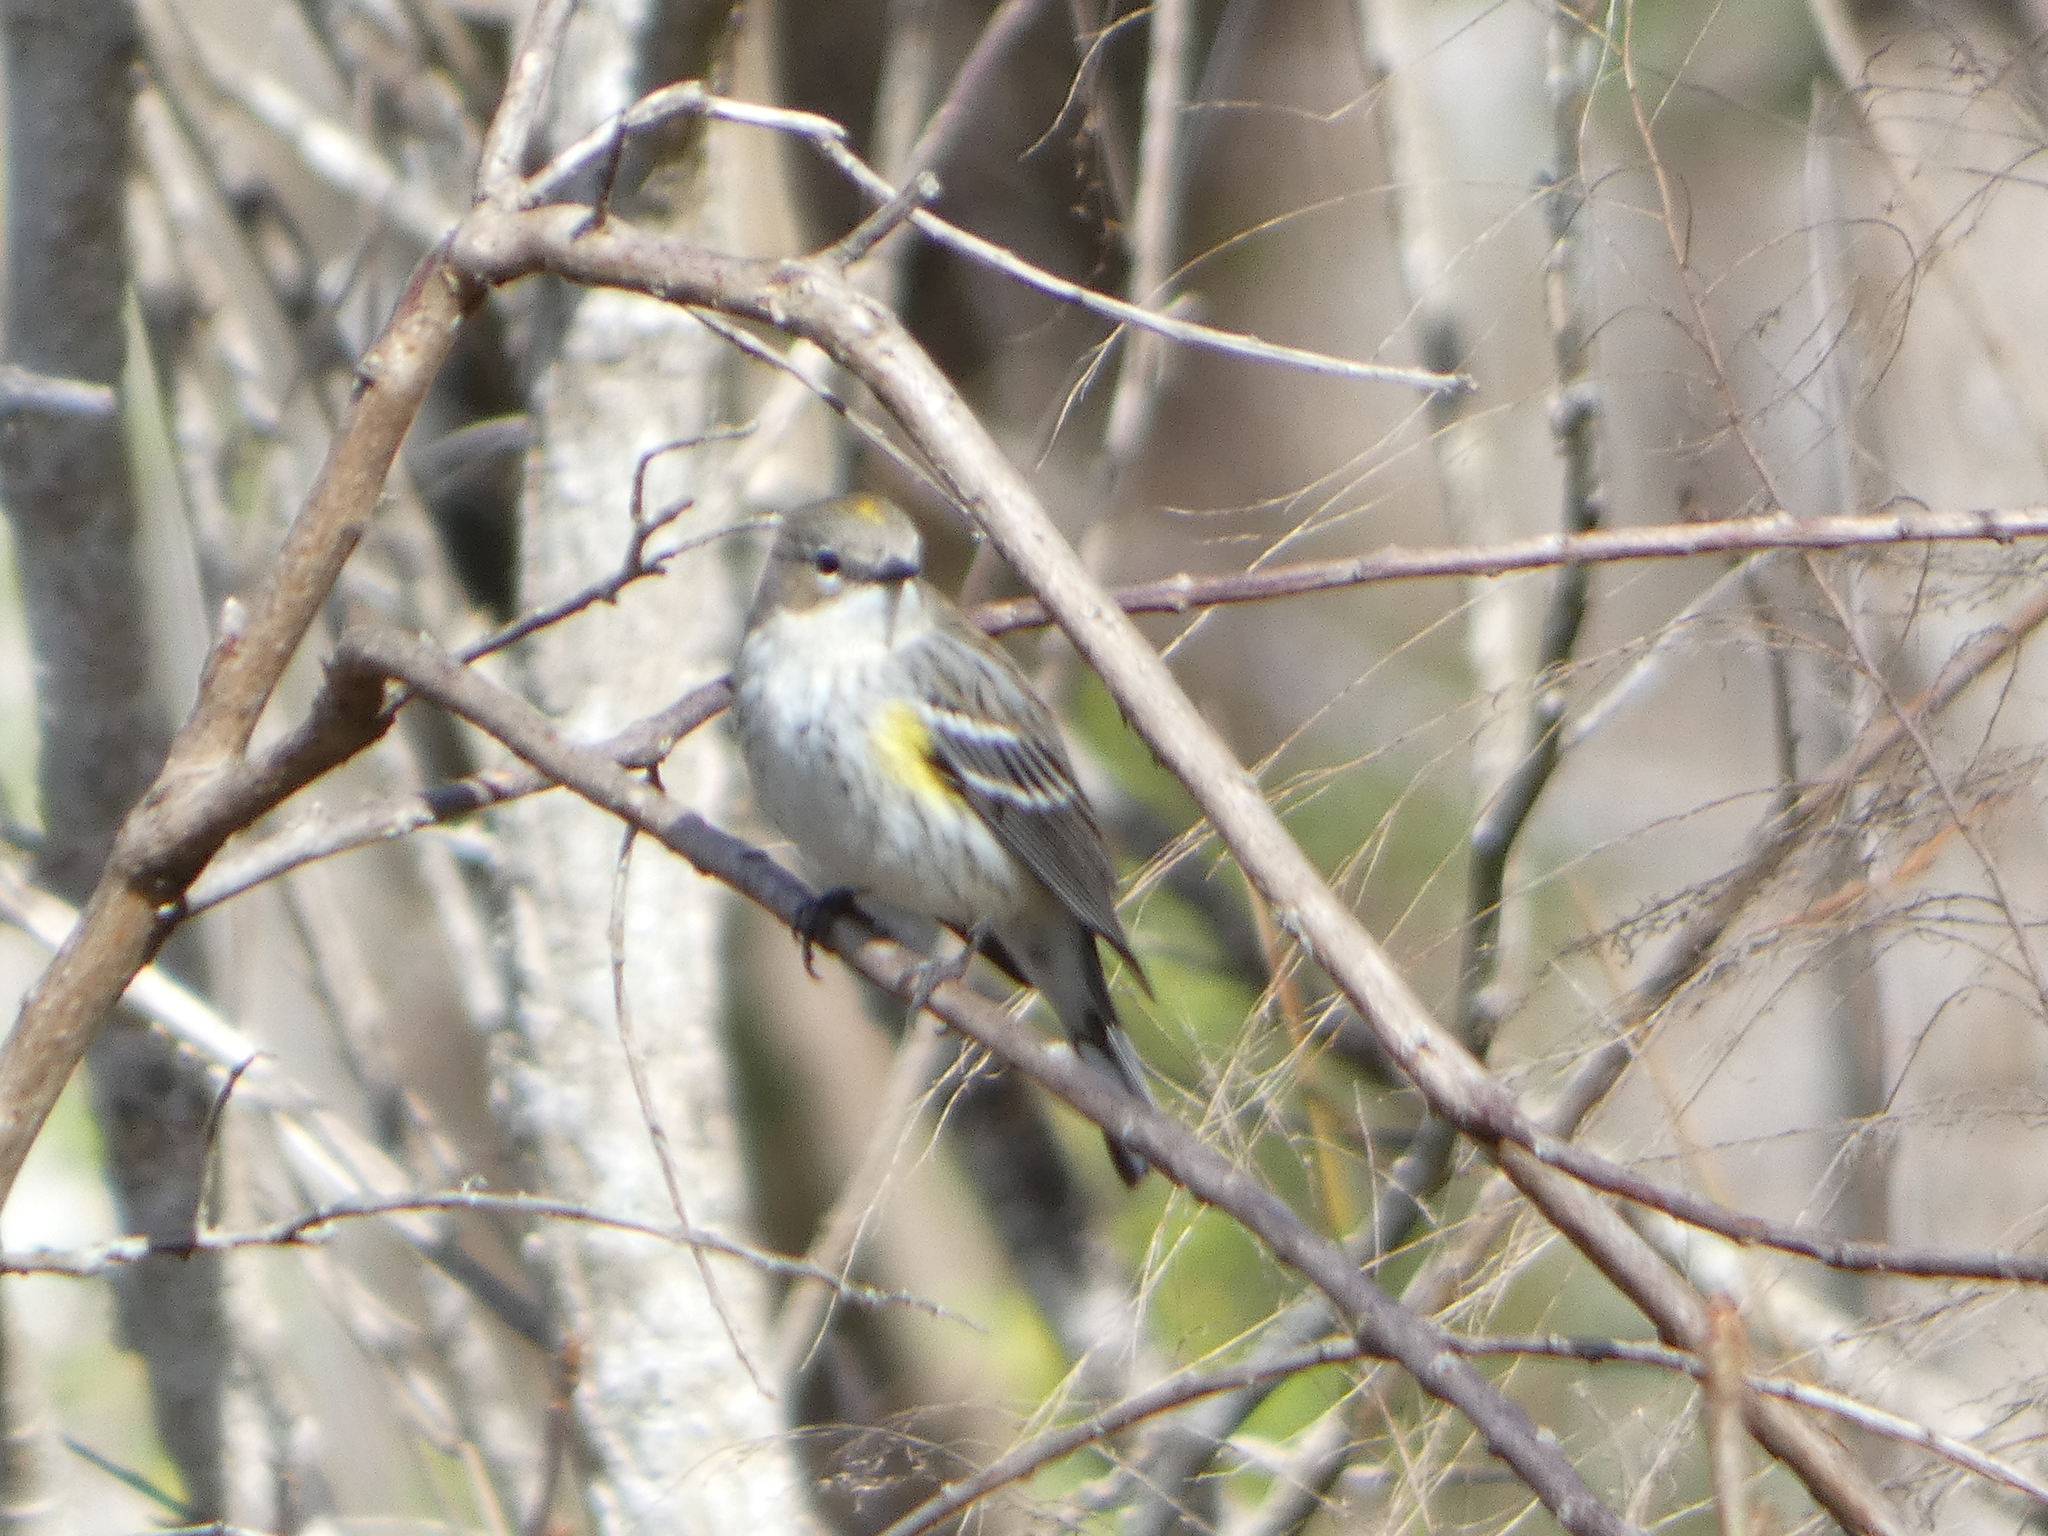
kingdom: Animalia
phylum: Chordata
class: Aves
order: Passeriformes
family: Parulidae
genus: Setophaga
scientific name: Setophaga coronata
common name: Myrtle warbler
